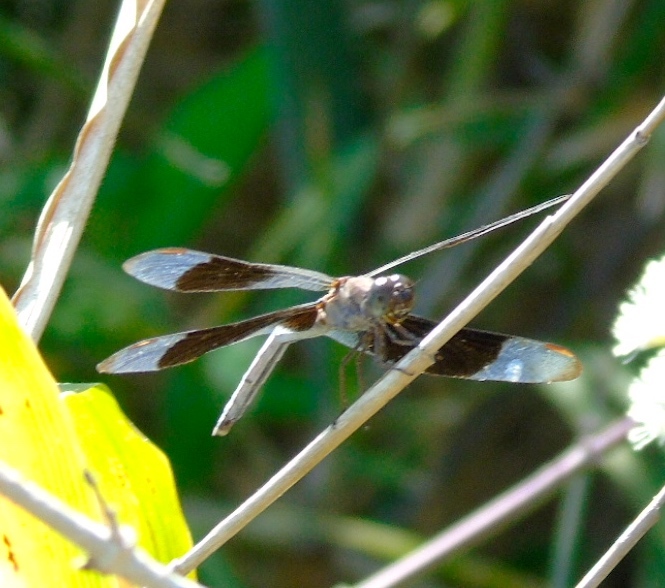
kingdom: Animalia
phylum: Arthropoda
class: Insecta
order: Odonata
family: Libellulidae
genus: Erythrodiplax
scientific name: Erythrodiplax funerea
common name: Black-winged dragonlet
